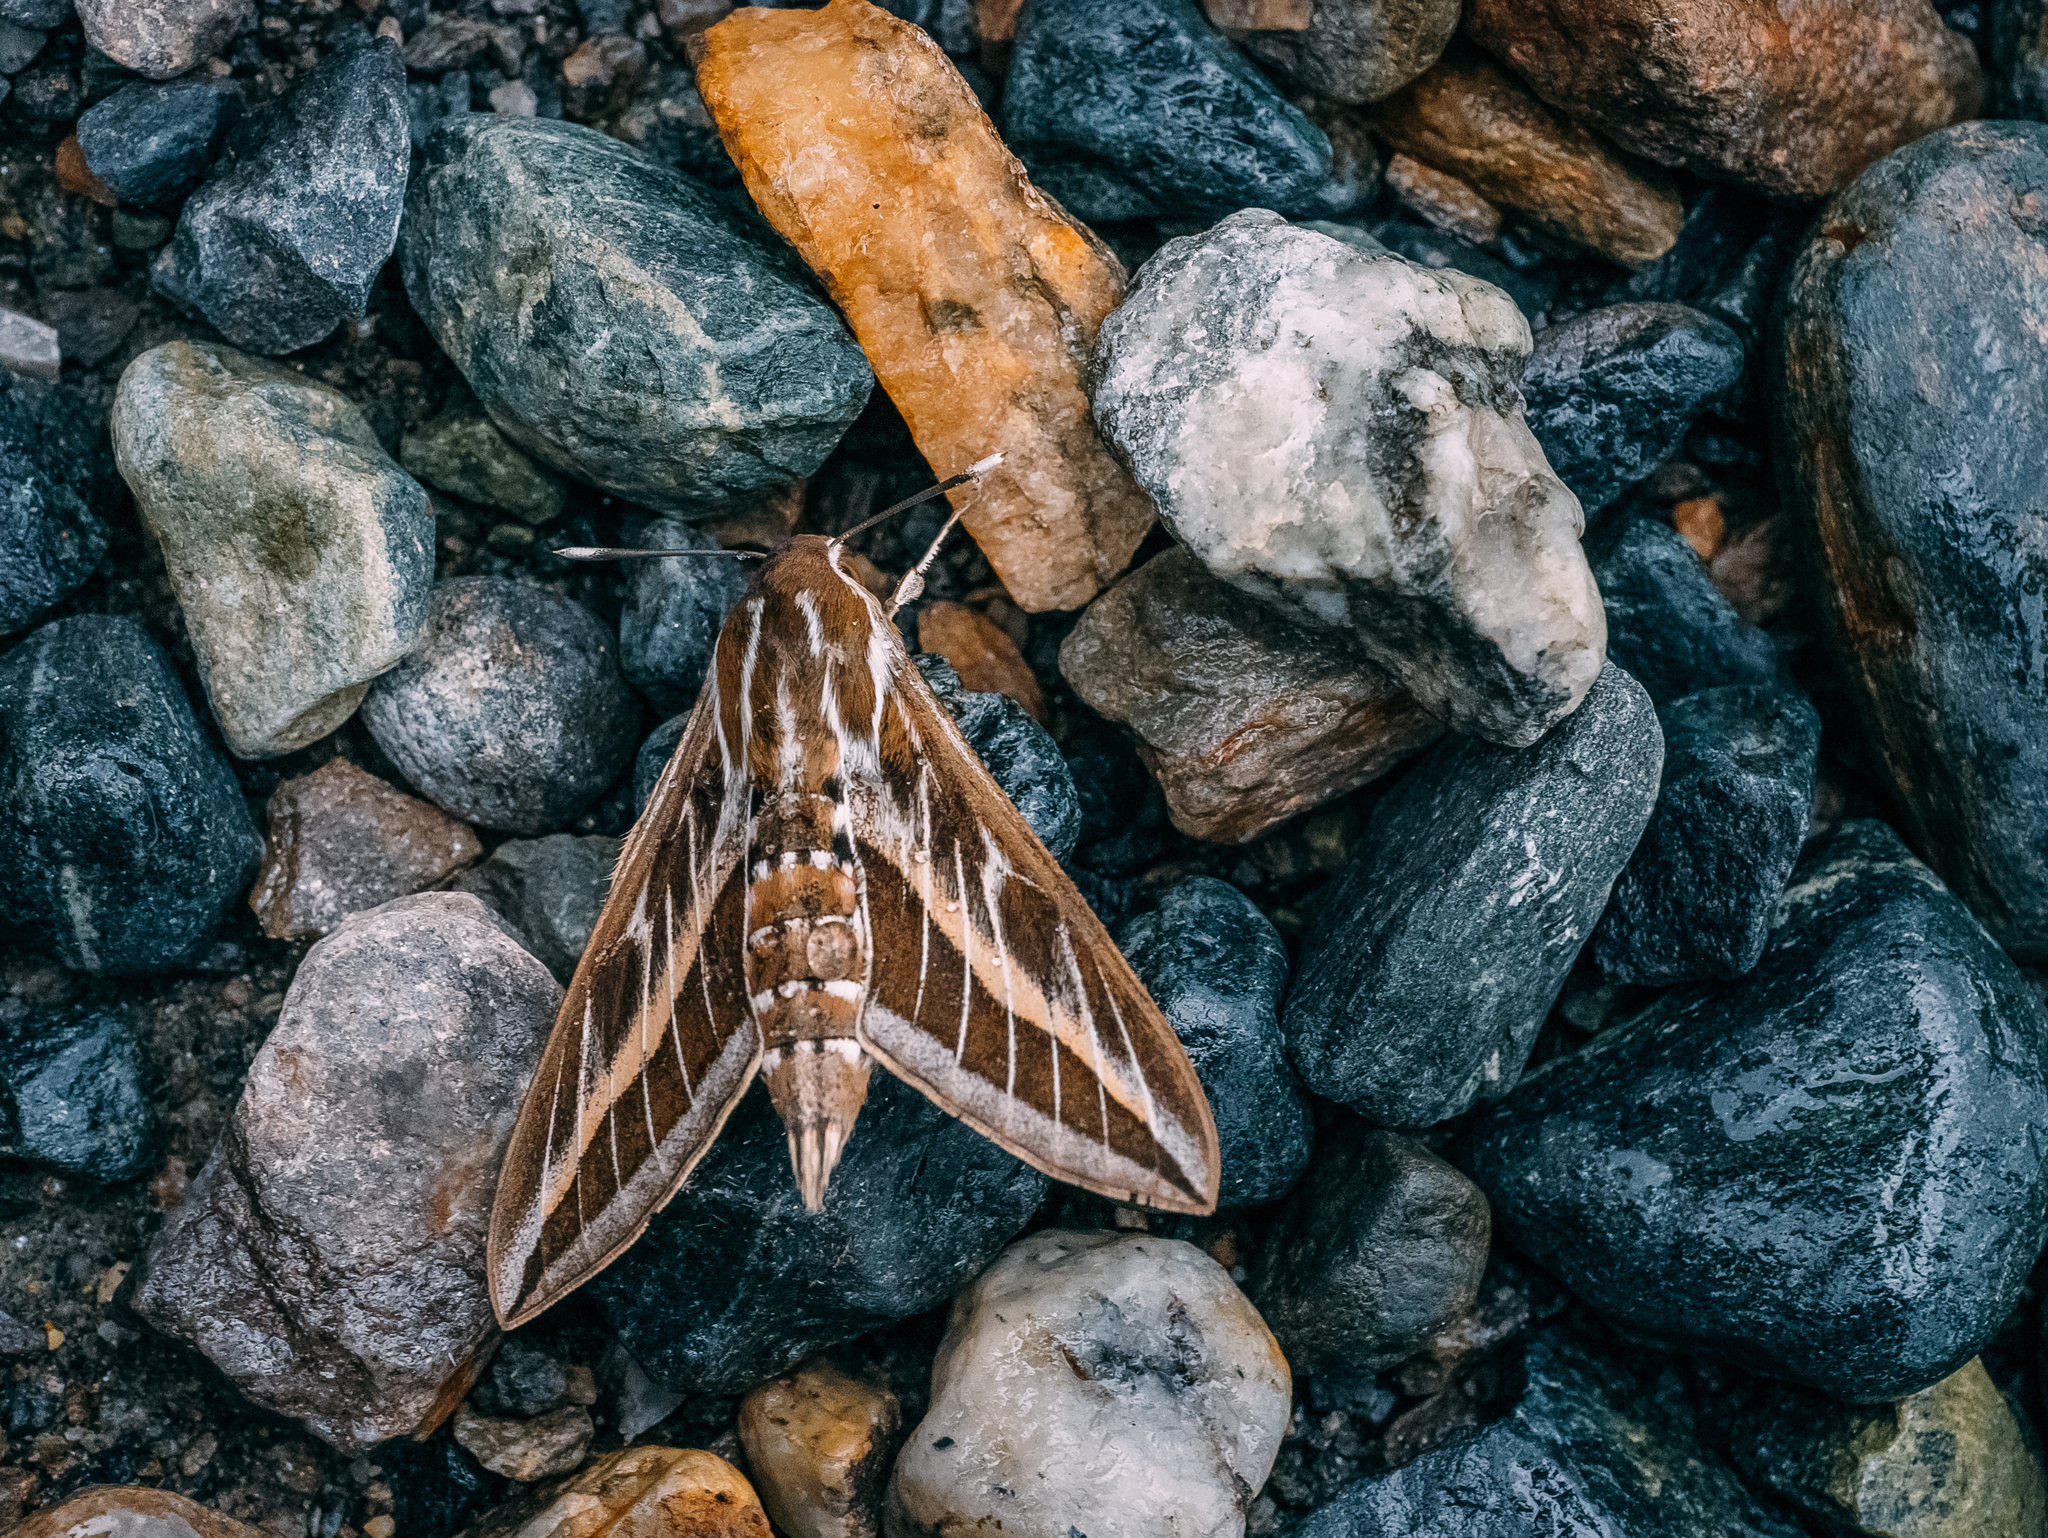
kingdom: Animalia
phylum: Arthropoda
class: Insecta
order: Lepidoptera
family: Sphingidae
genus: Hyles
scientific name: Hyles livornica
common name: Striped hawk-moth
